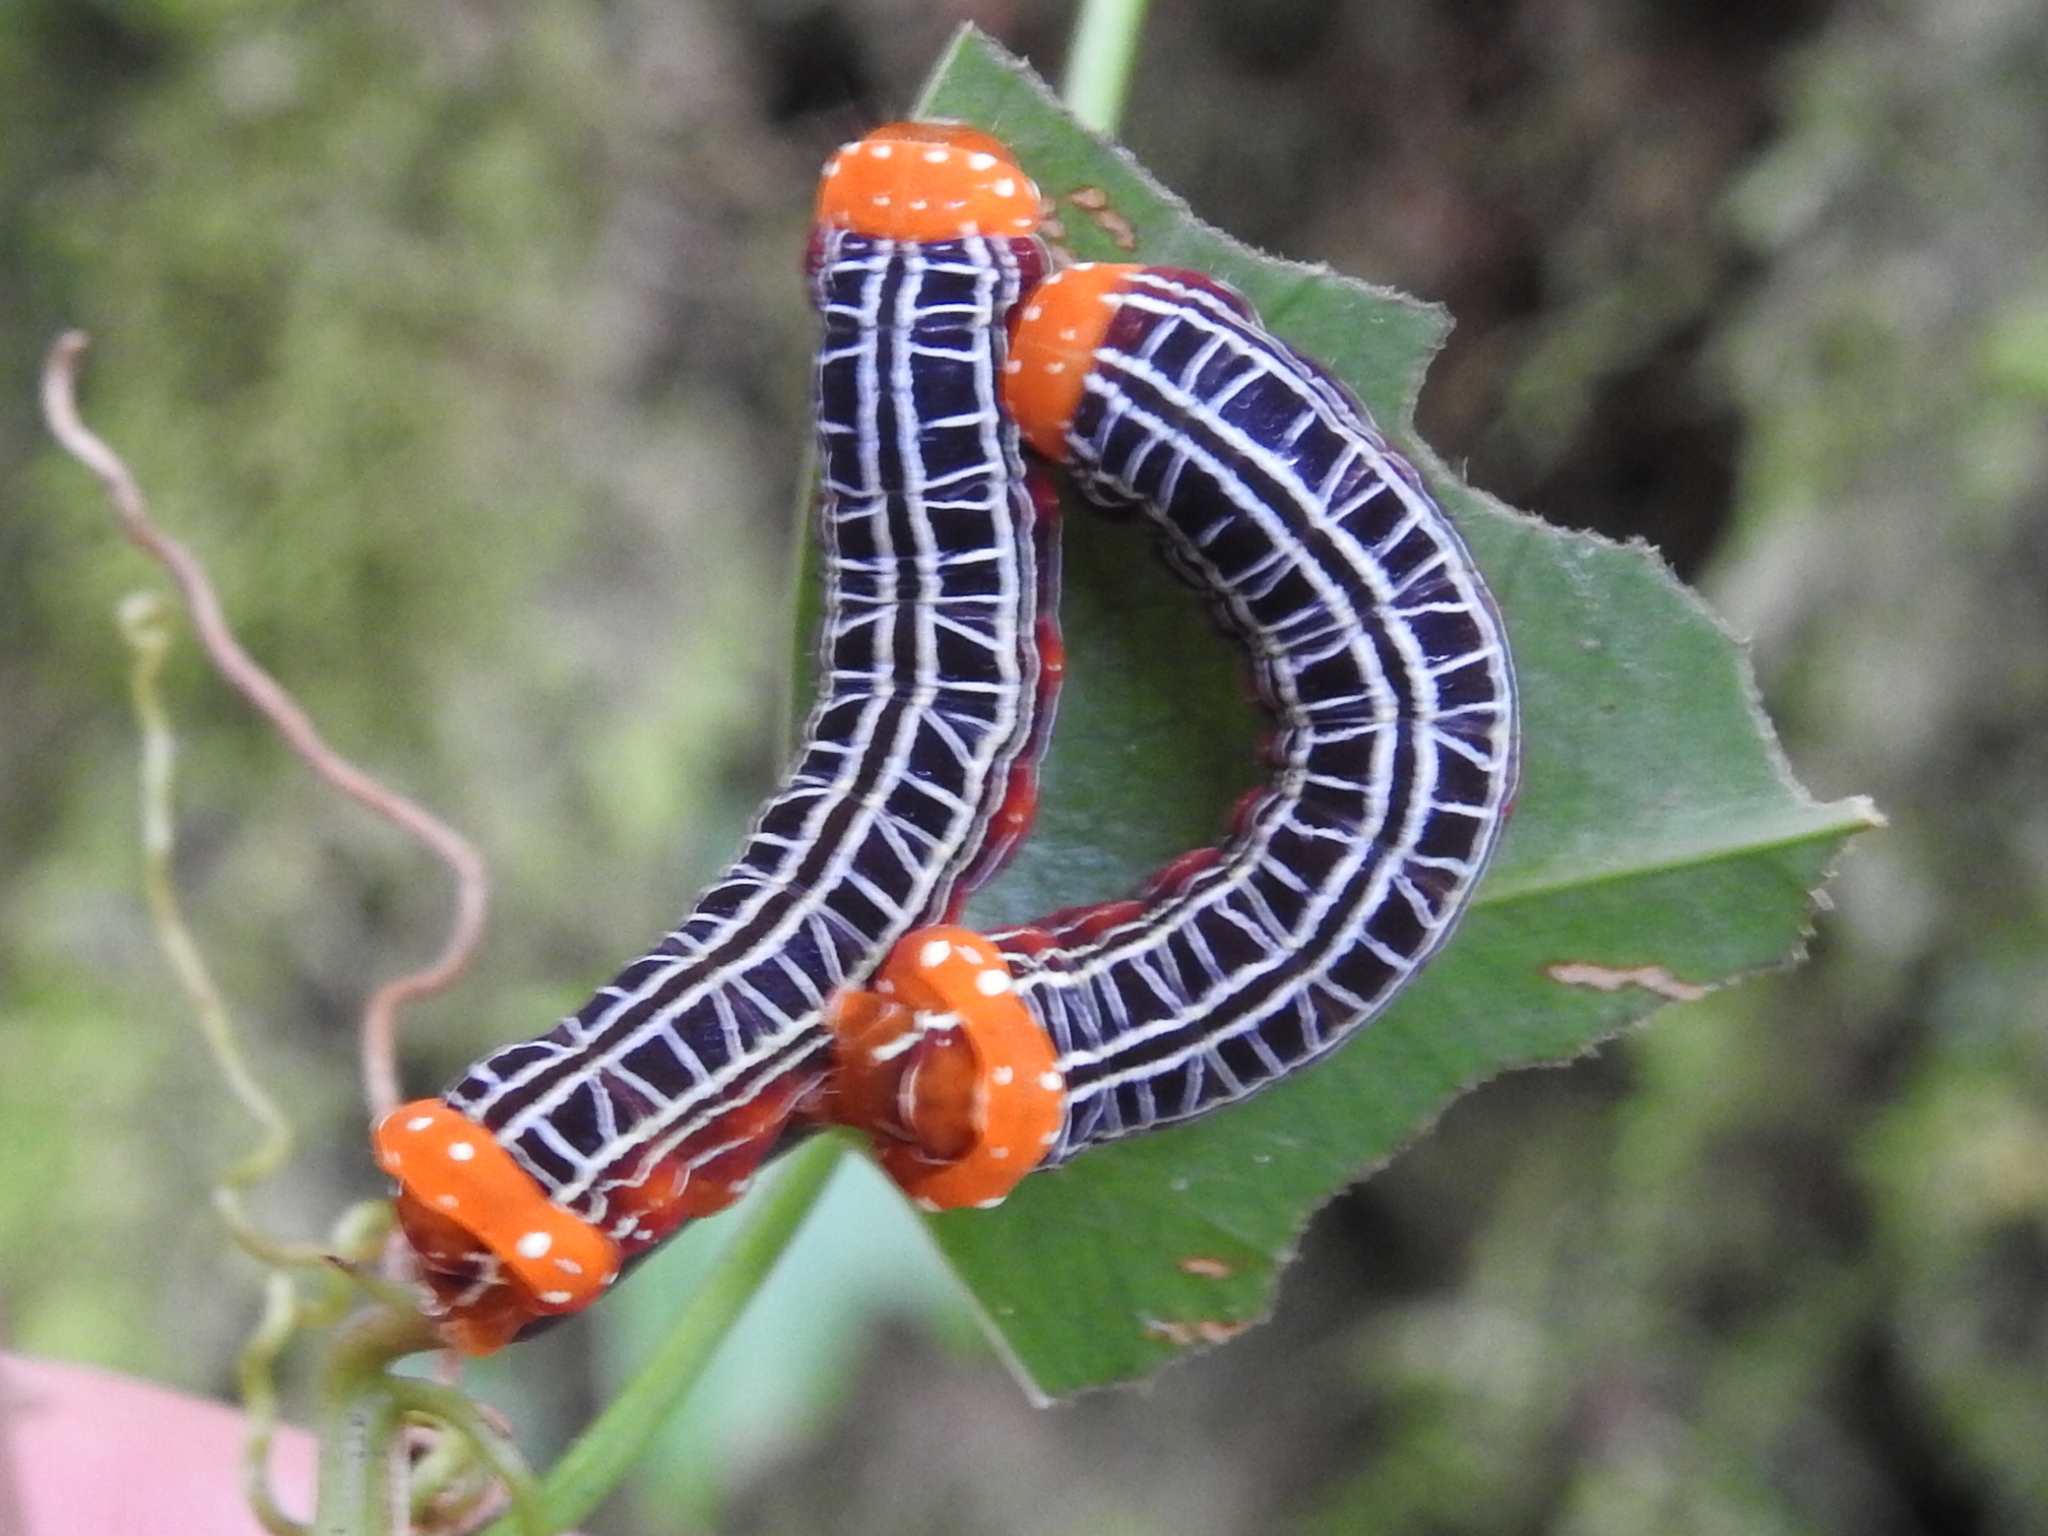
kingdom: Animalia
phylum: Arthropoda
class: Insecta
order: Lepidoptera
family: Noctuidae
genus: Heterochroma
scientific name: Heterochroma sarepta
